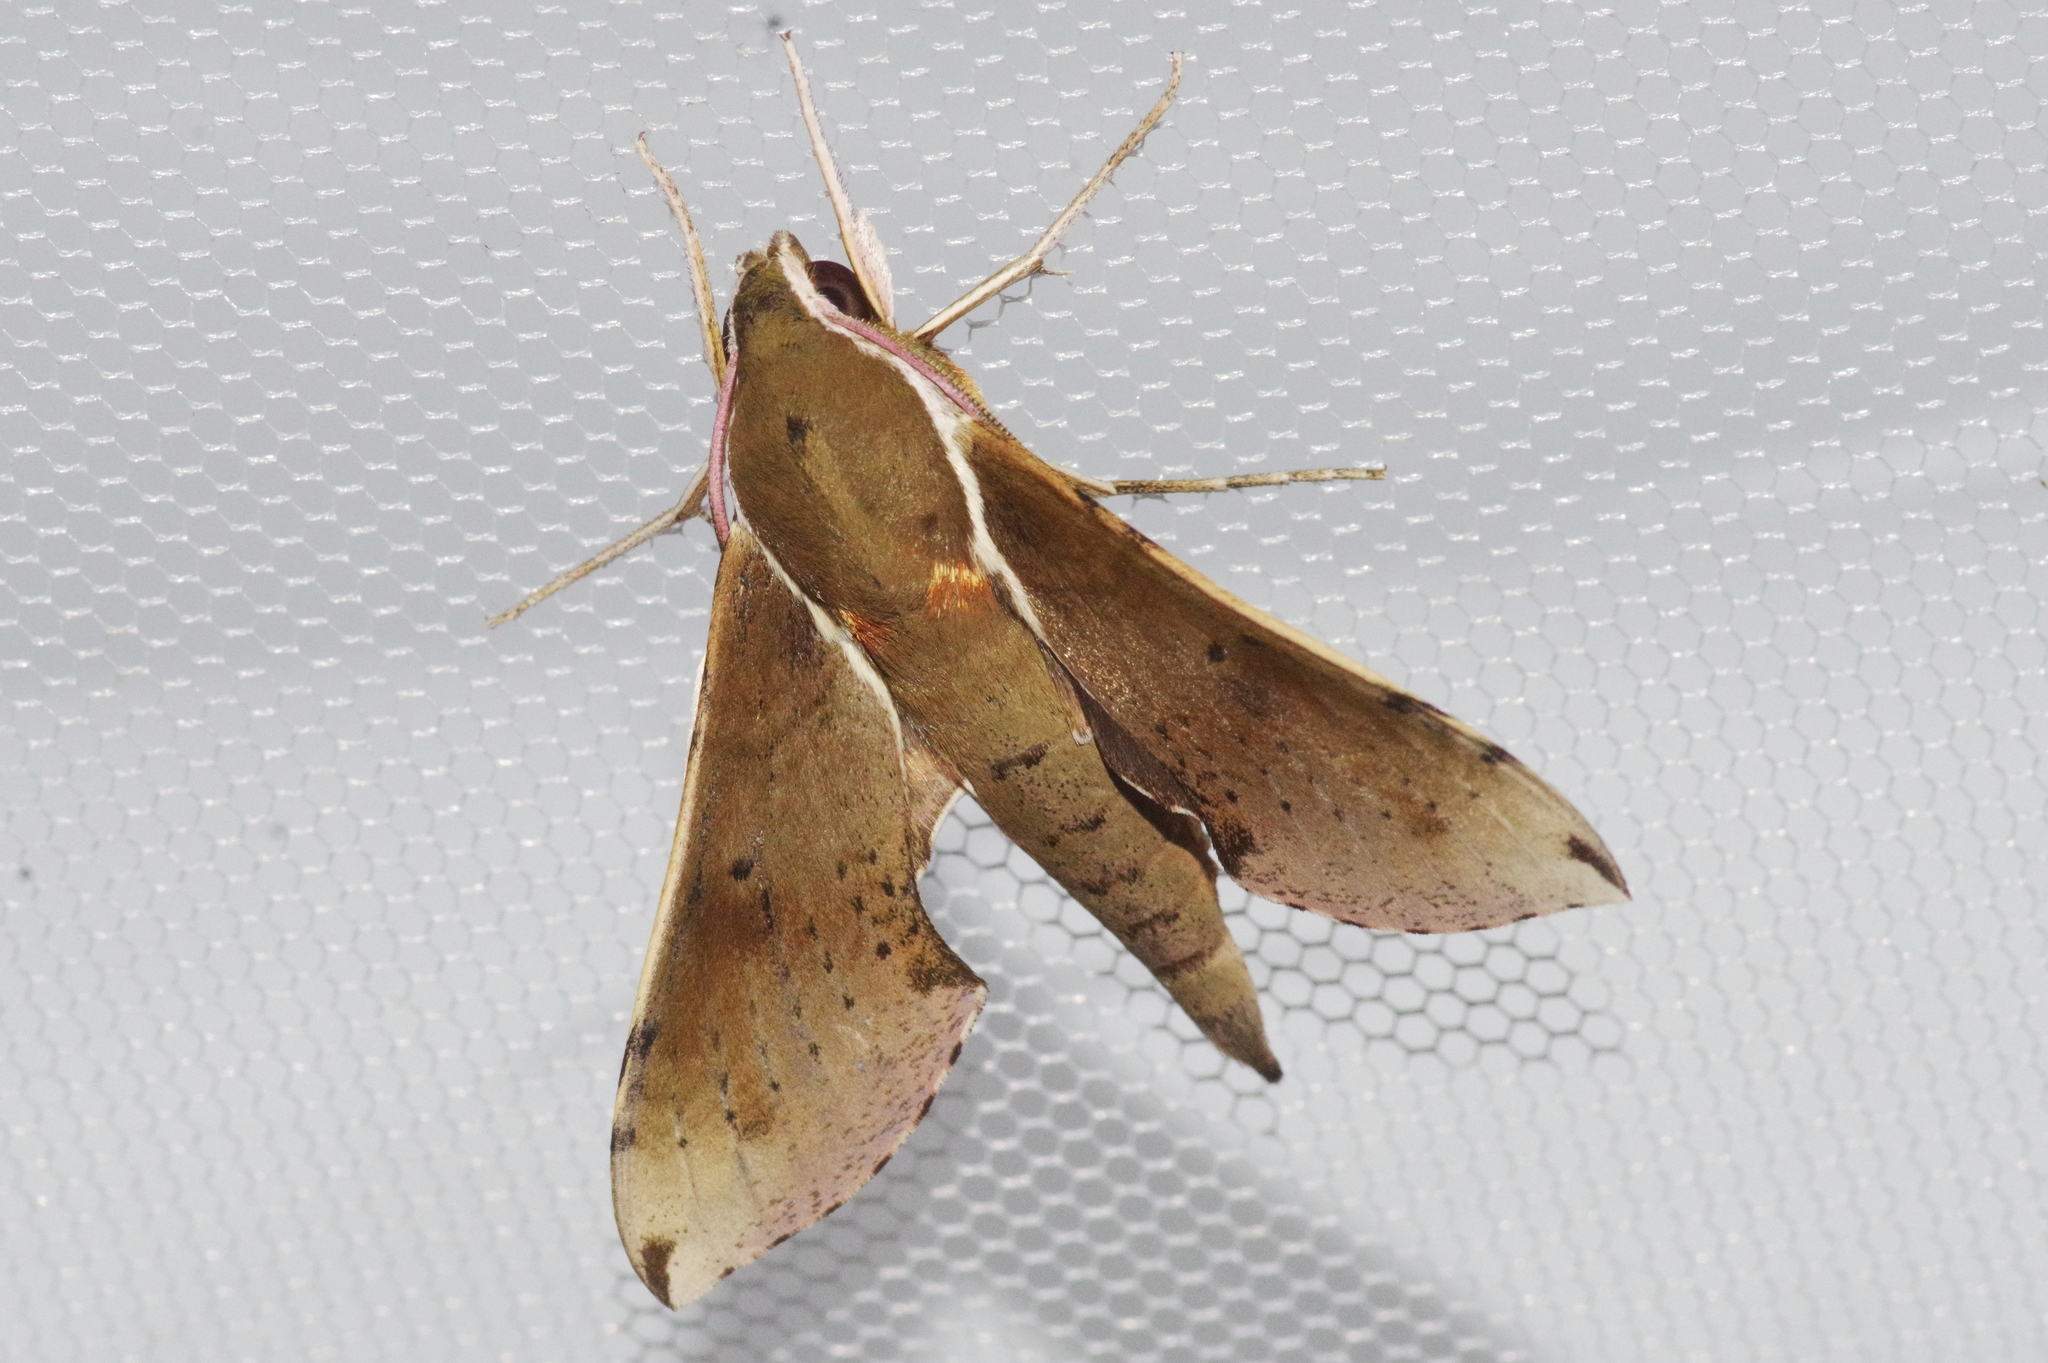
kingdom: Animalia
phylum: Arthropoda
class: Insecta
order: Lepidoptera
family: Sphingidae
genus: Rhagastis
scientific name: Rhagastis mongoliana
